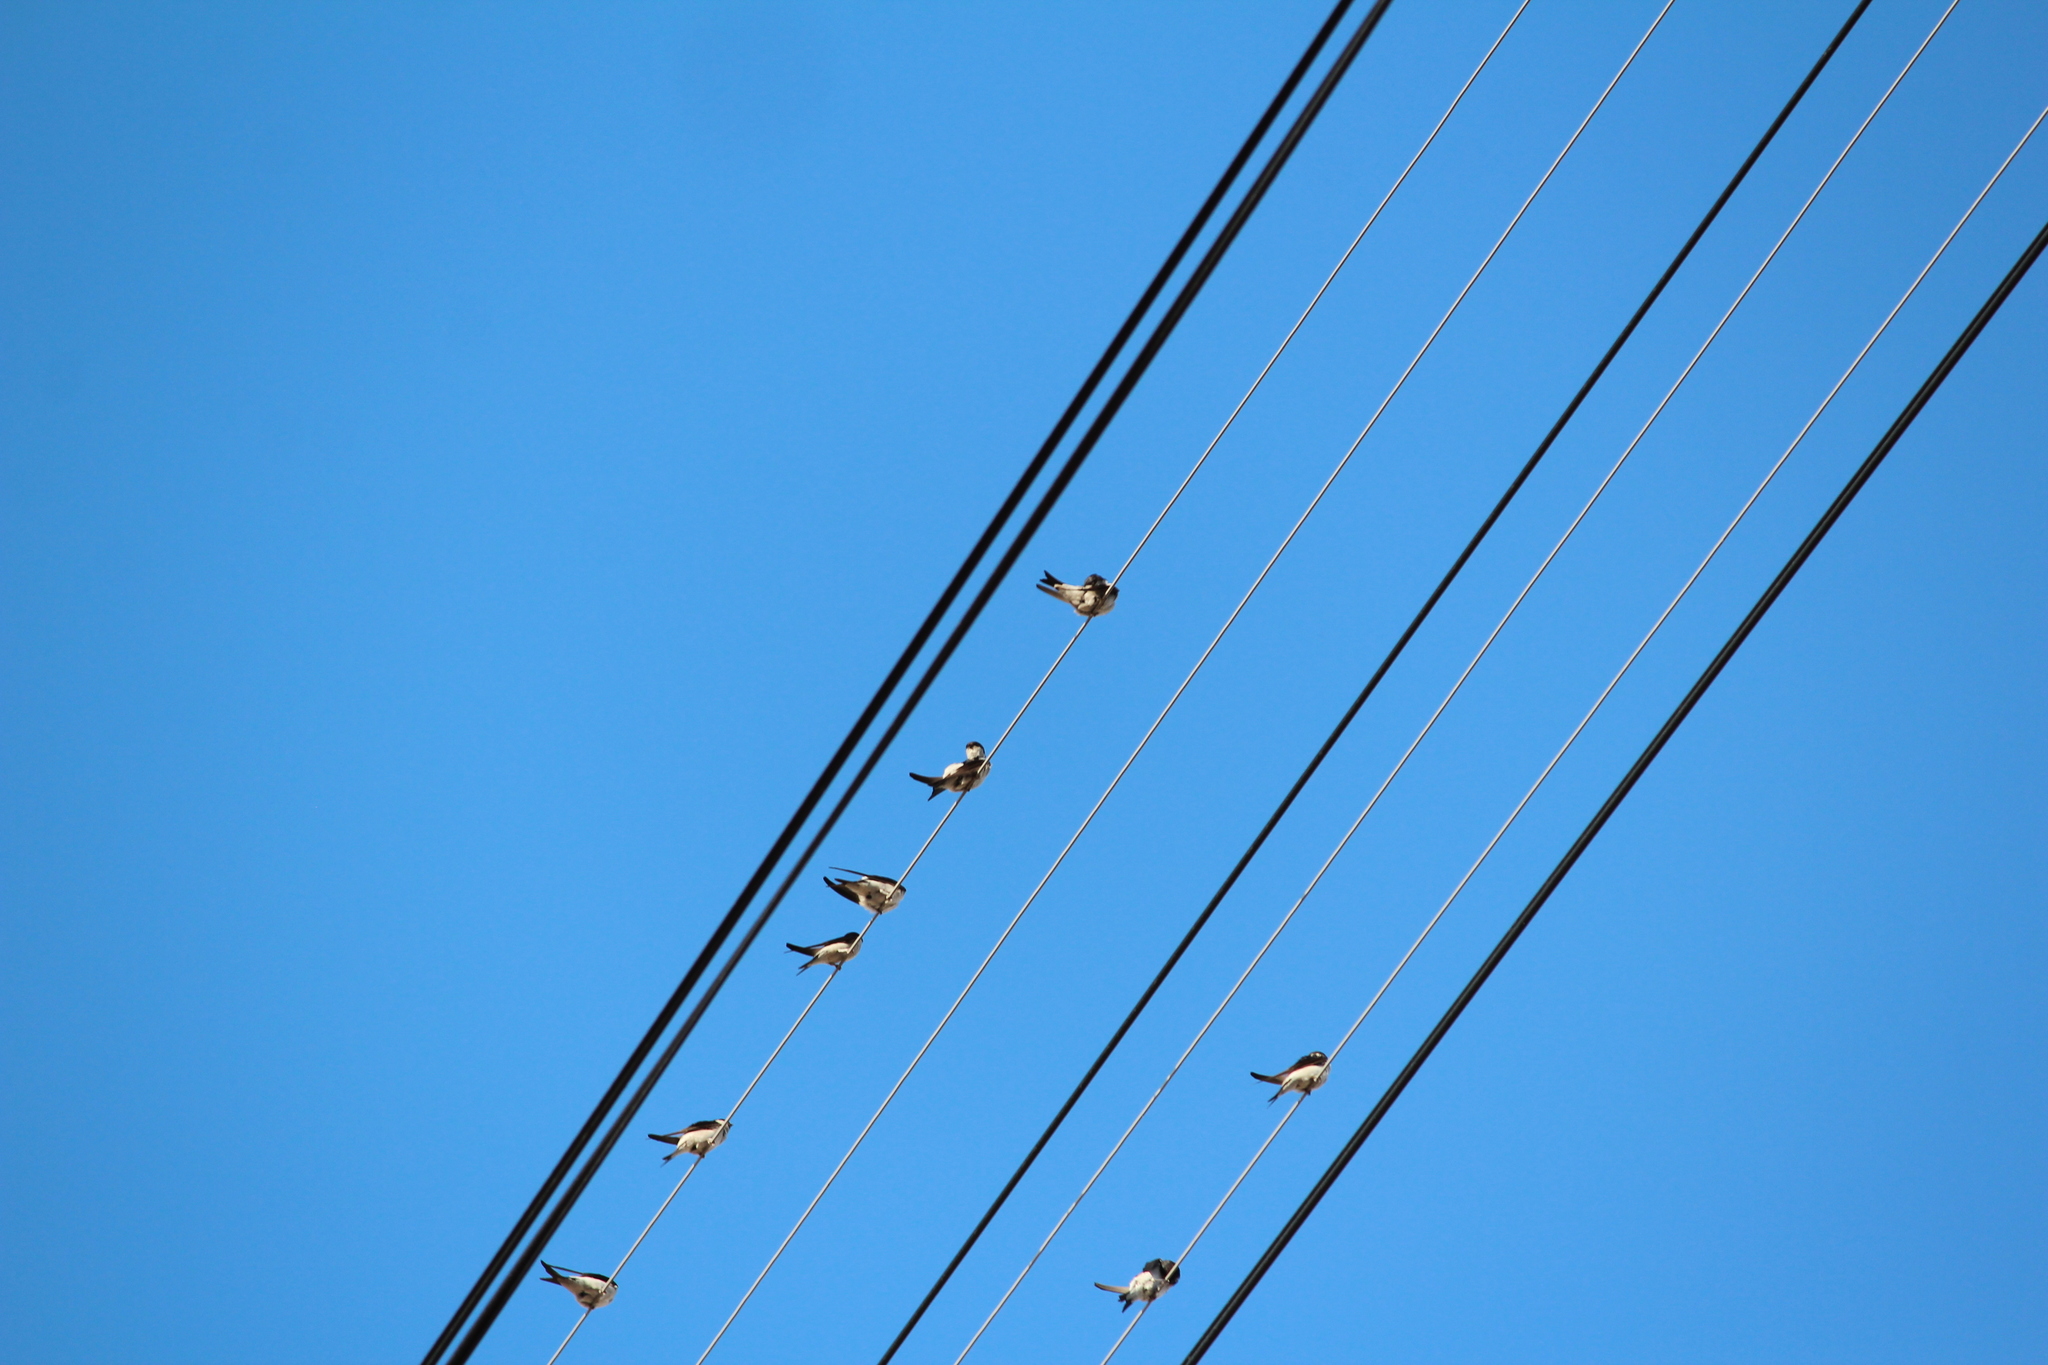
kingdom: Animalia
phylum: Chordata
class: Aves
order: Passeriformes
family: Hirundinidae
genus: Delichon
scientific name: Delichon urbicum
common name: Common house martin
